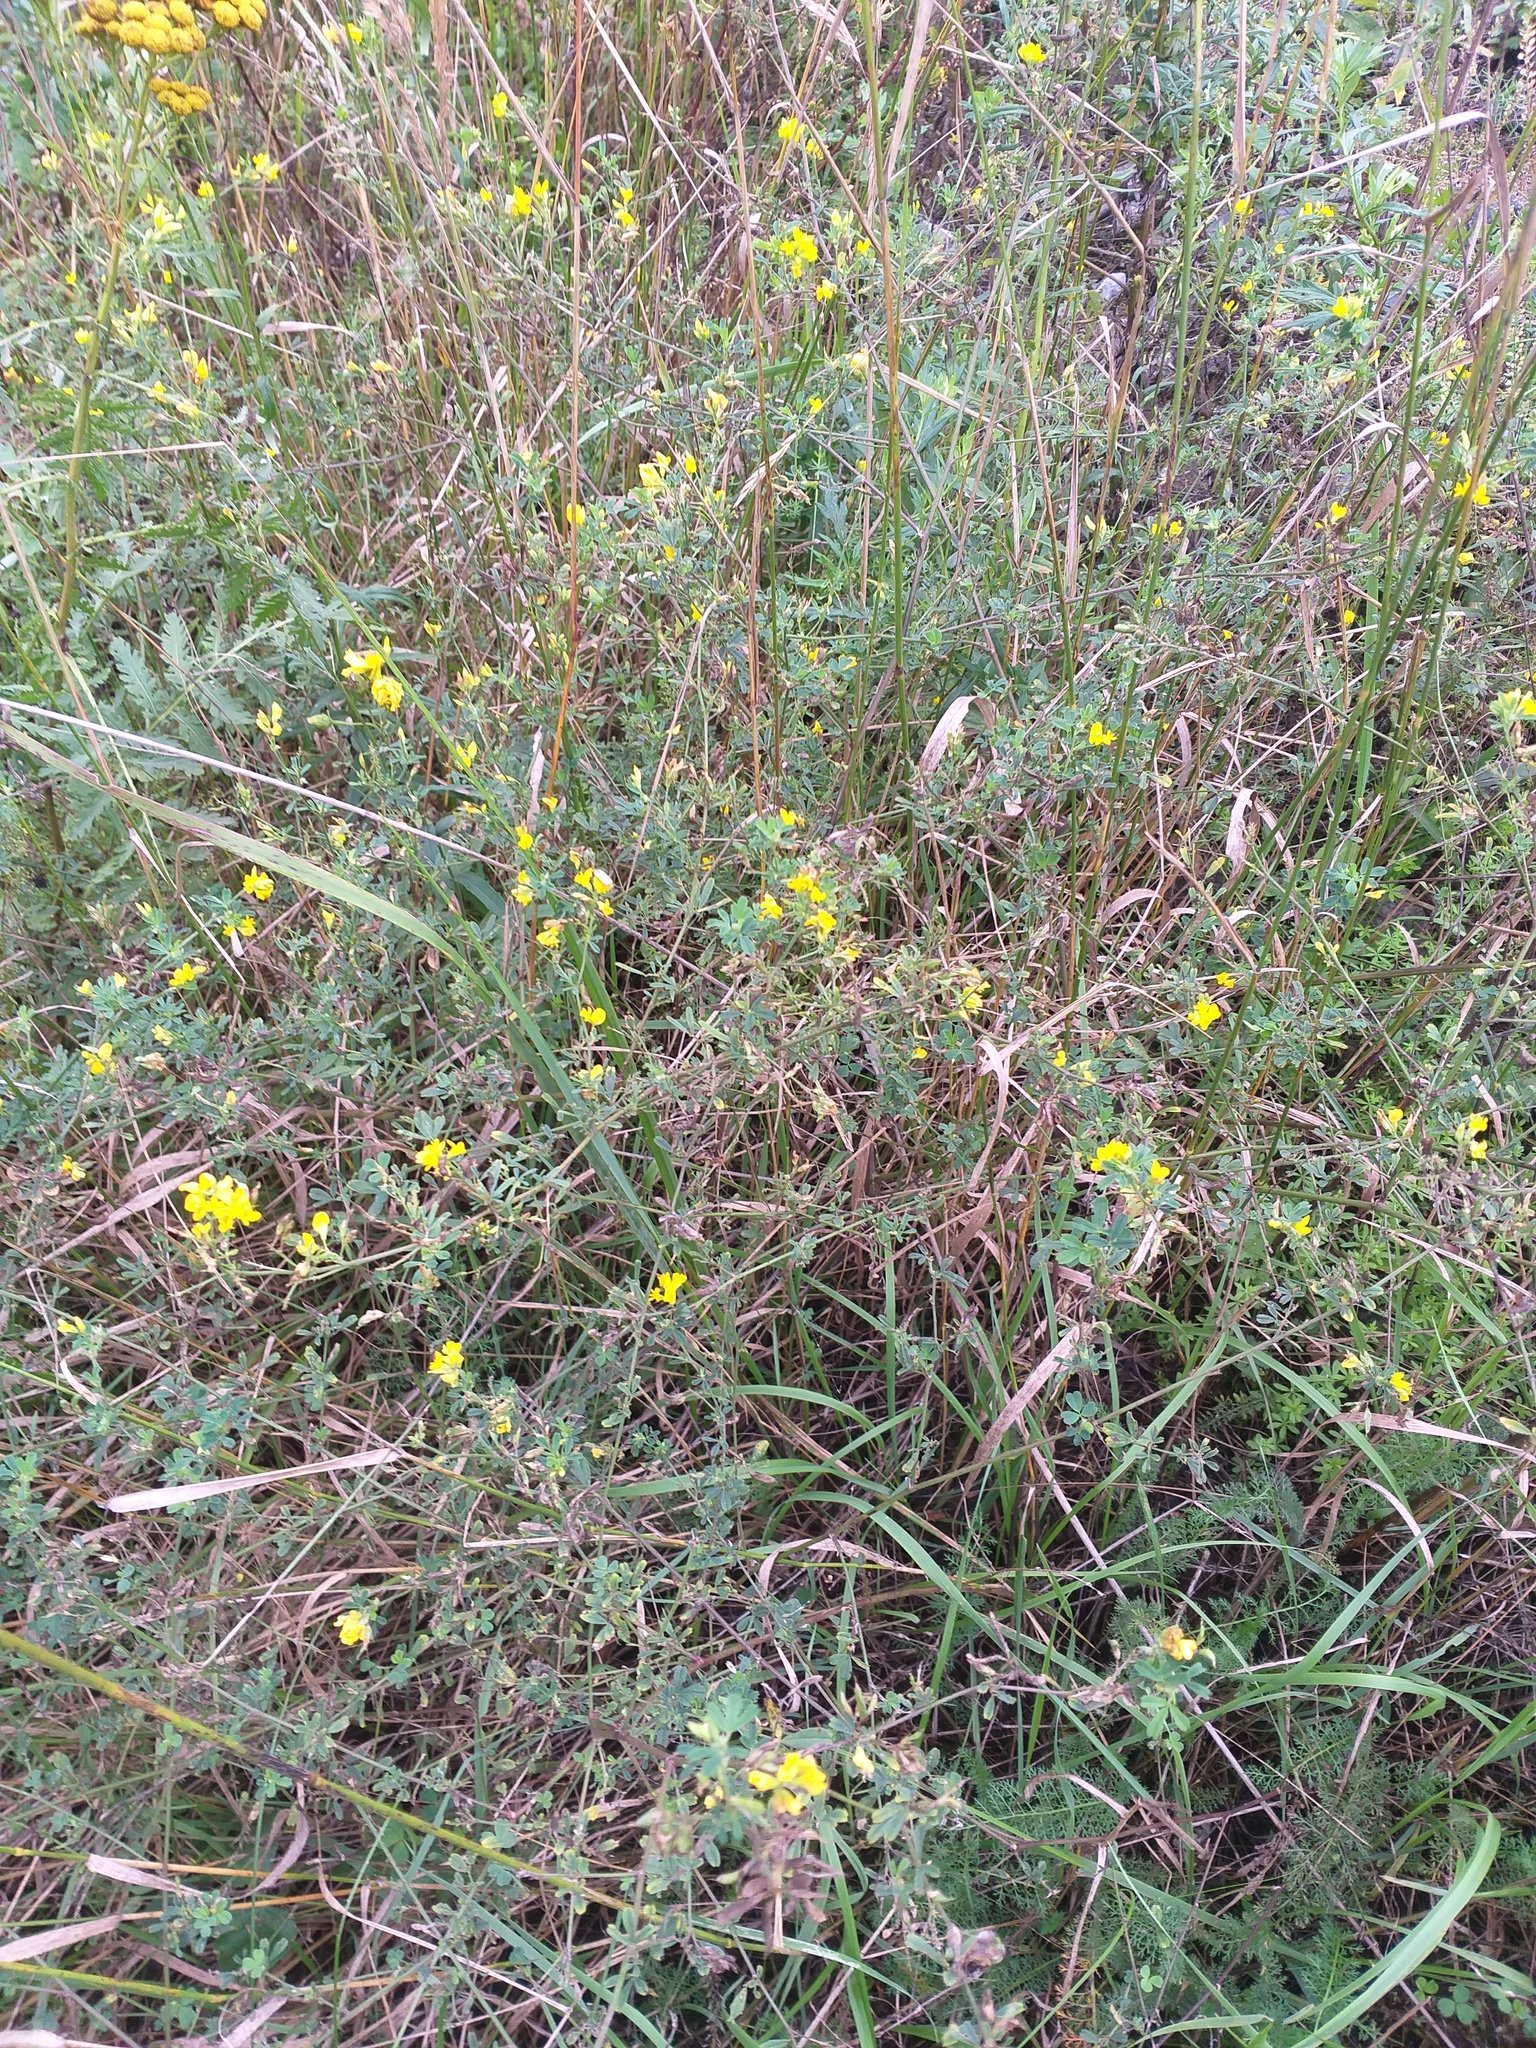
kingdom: Plantae
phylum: Tracheophyta
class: Magnoliopsida
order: Fabales
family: Fabaceae
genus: Medicago
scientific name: Medicago falcata
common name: Sickle medick
